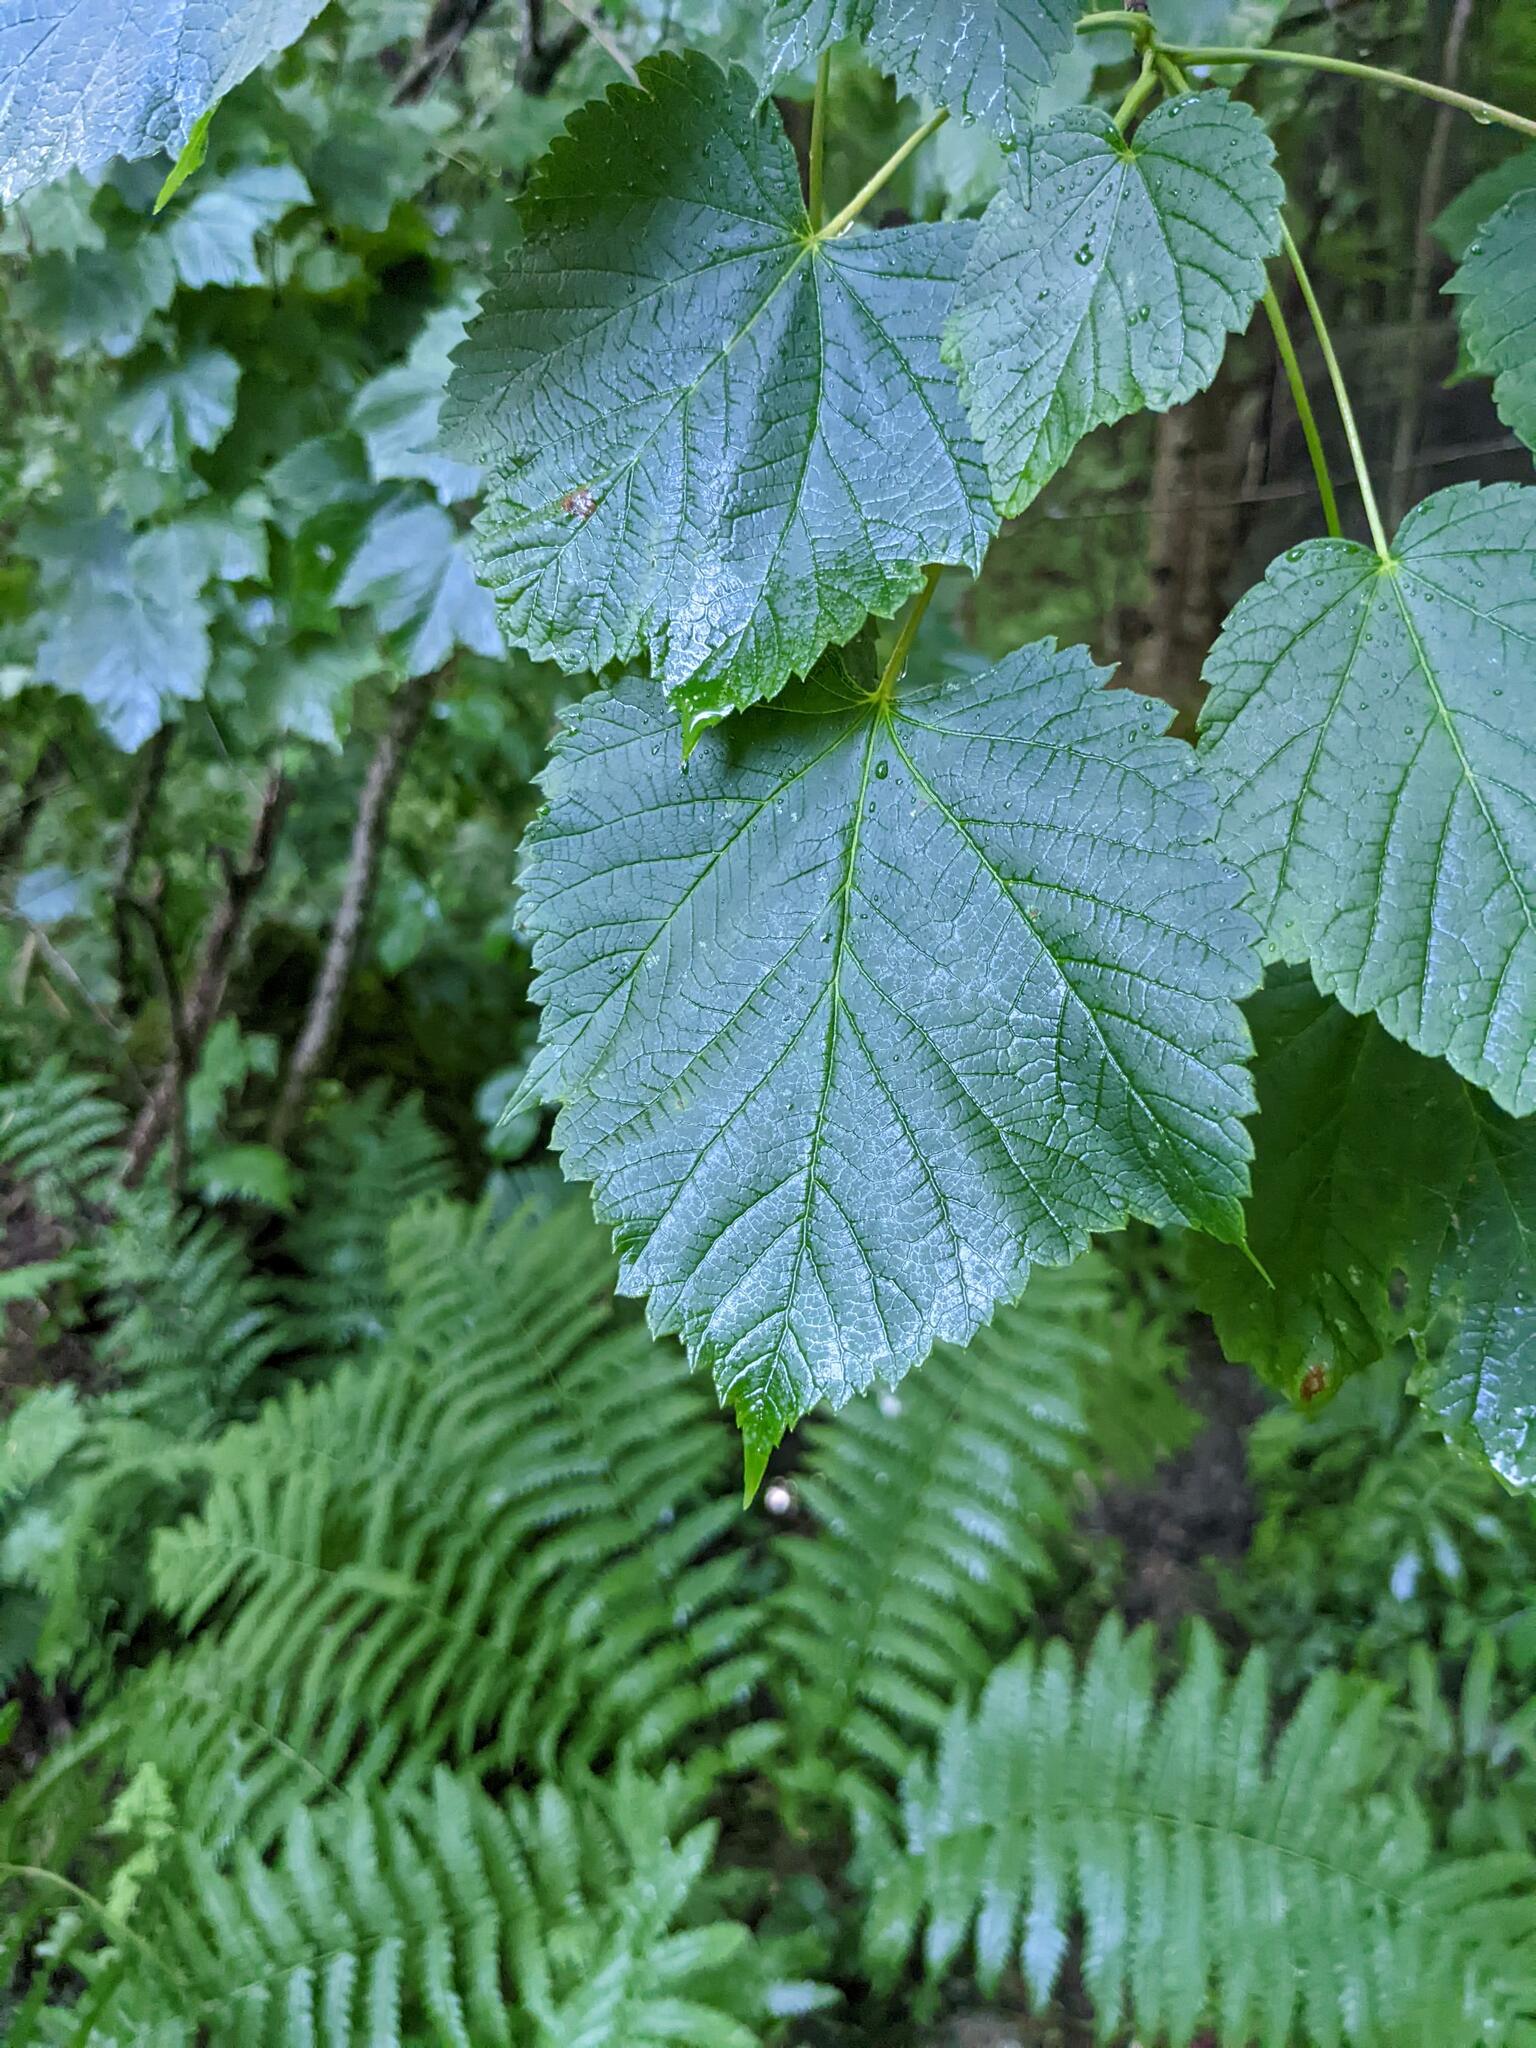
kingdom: Plantae
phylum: Tracheophyta
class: Magnoliopsida
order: Sapindales
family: Sapindaceae
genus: Acer
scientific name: Acer spicatum
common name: Mountain maple
